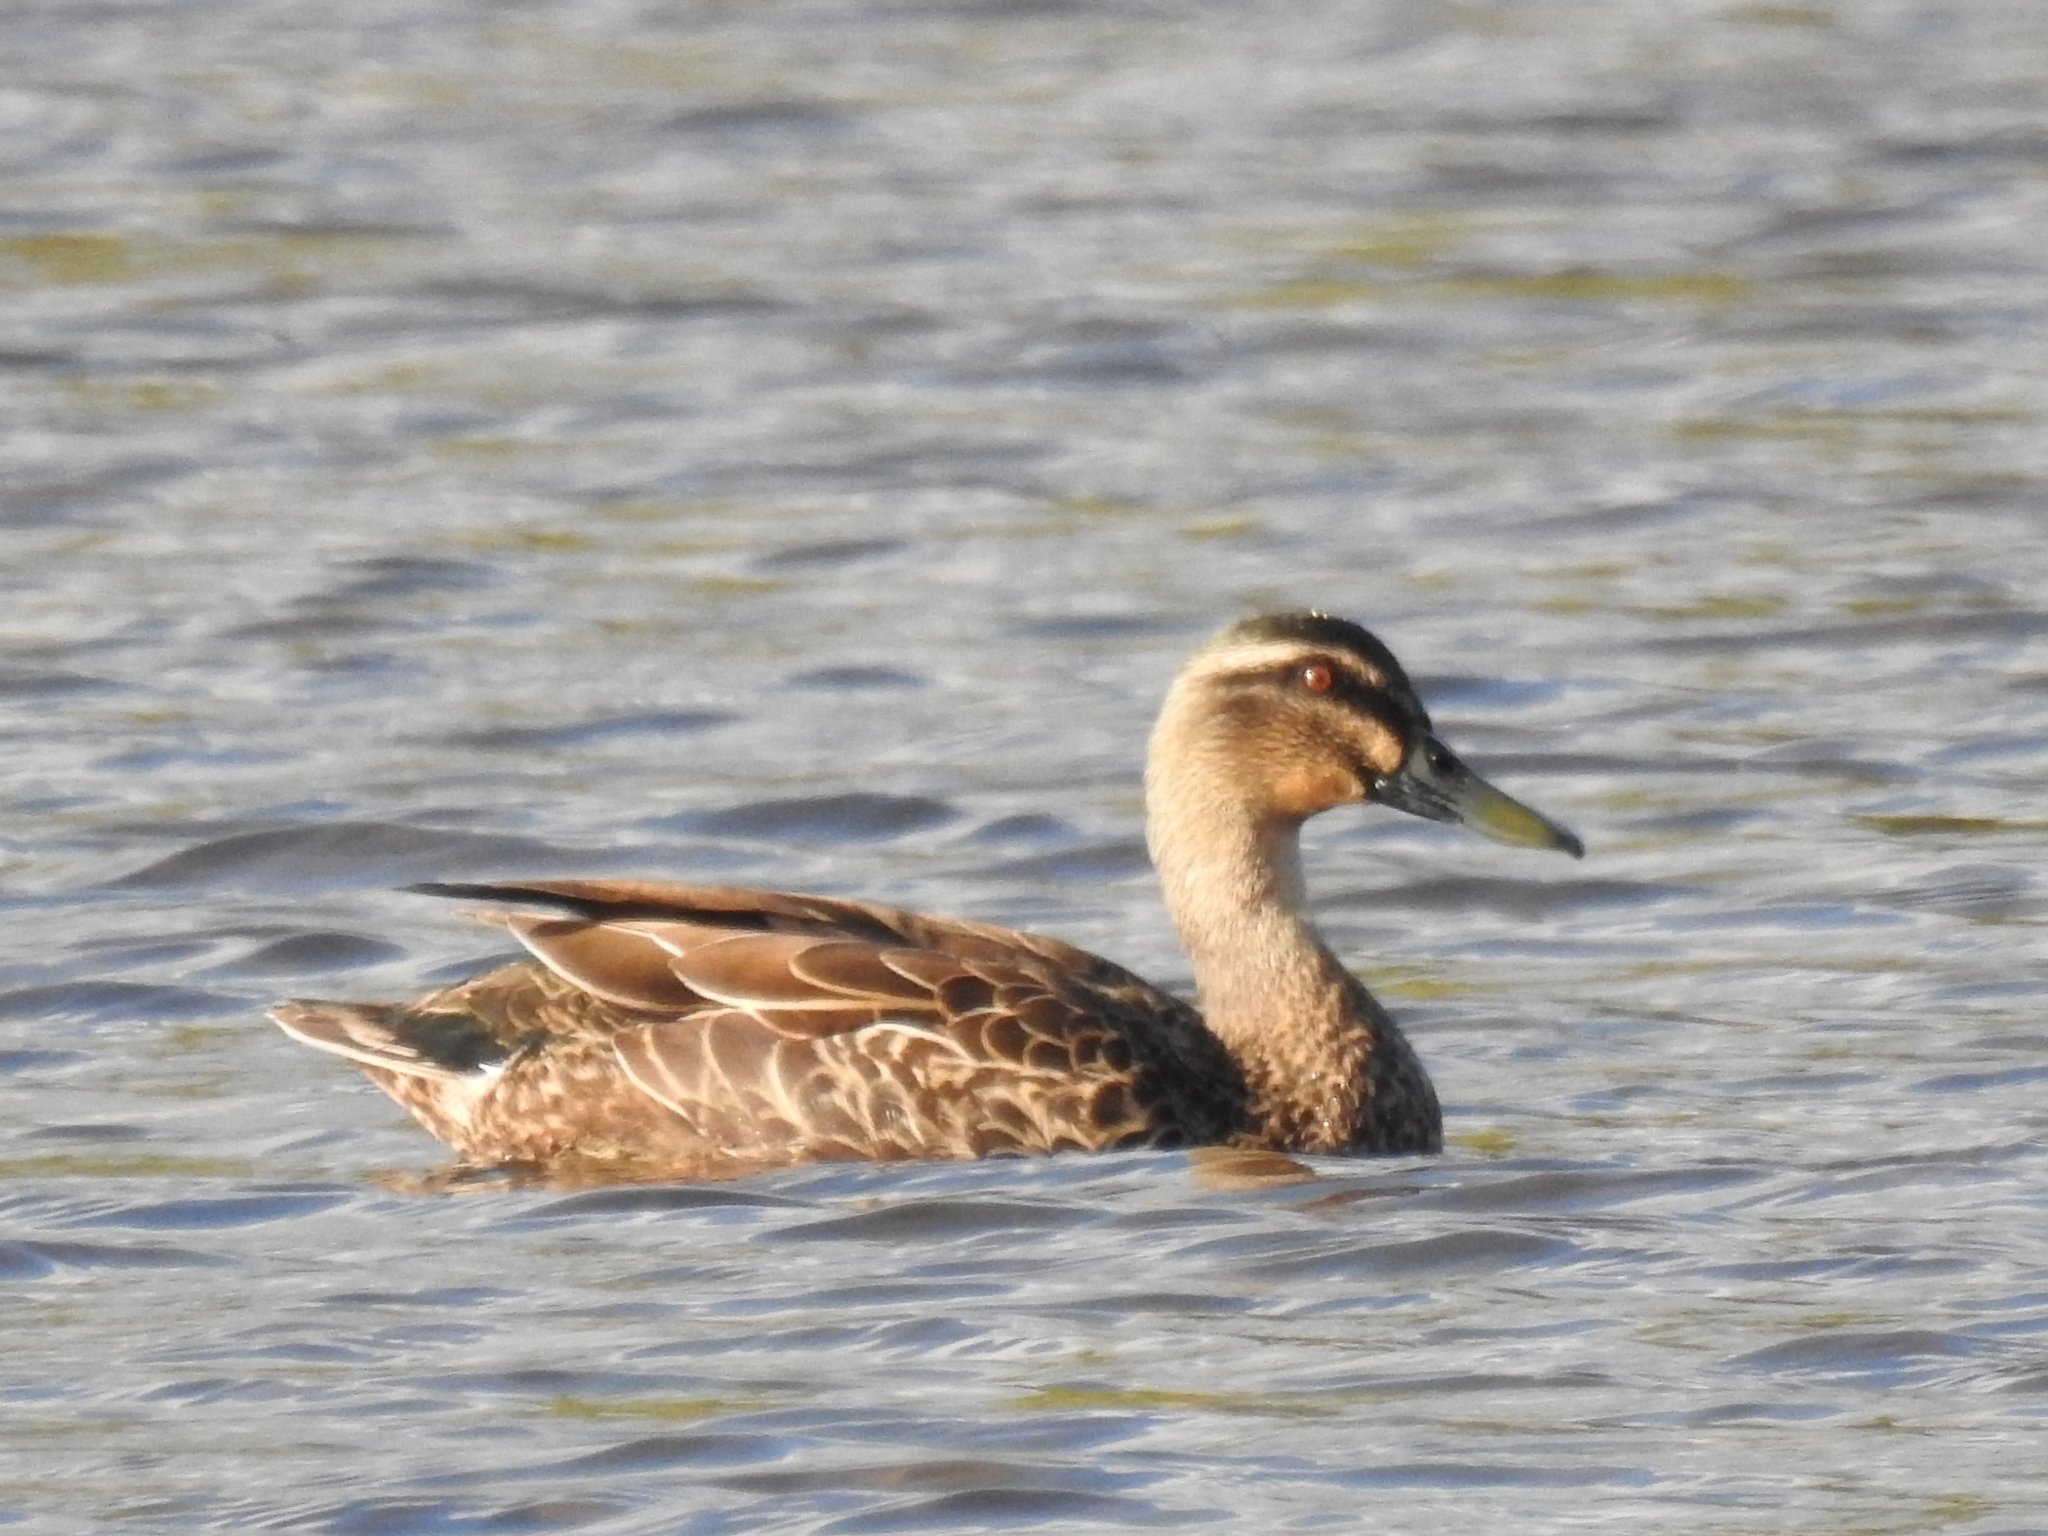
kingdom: Animalia
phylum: Chordata
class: Aves
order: Anseriformes
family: Anatidae
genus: Anas
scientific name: Anas
